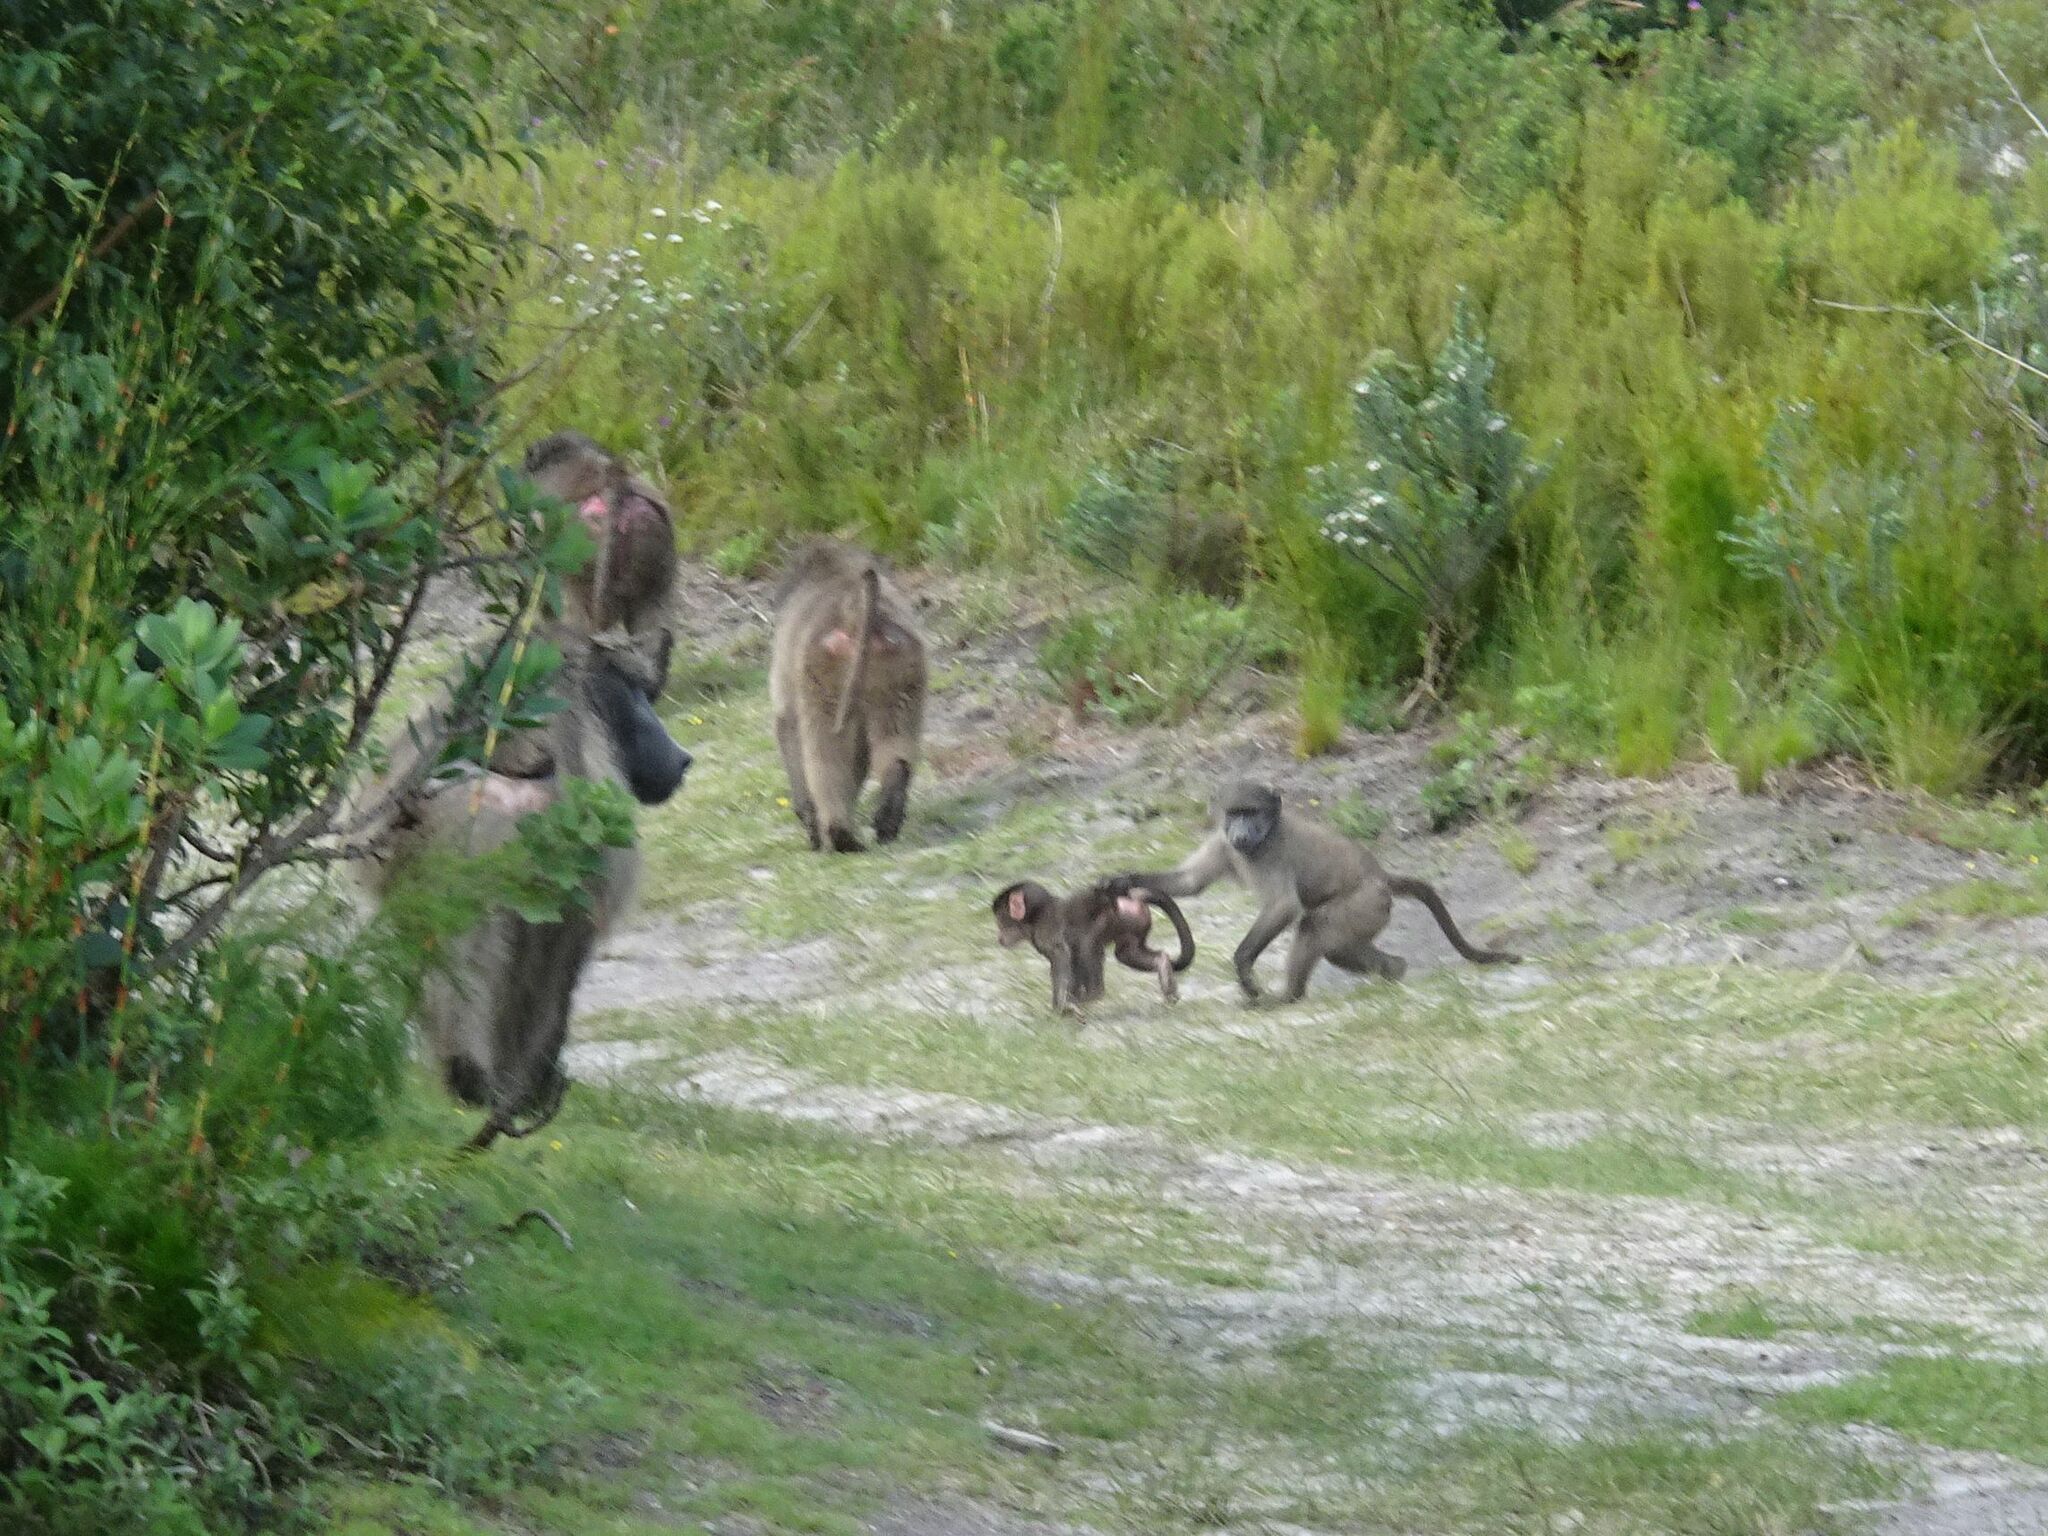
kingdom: Animalia
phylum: Chordata
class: Mammalia
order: Primates
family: Cercopithecidae
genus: Papio
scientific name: Papio ursinus
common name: Chacma baboon
